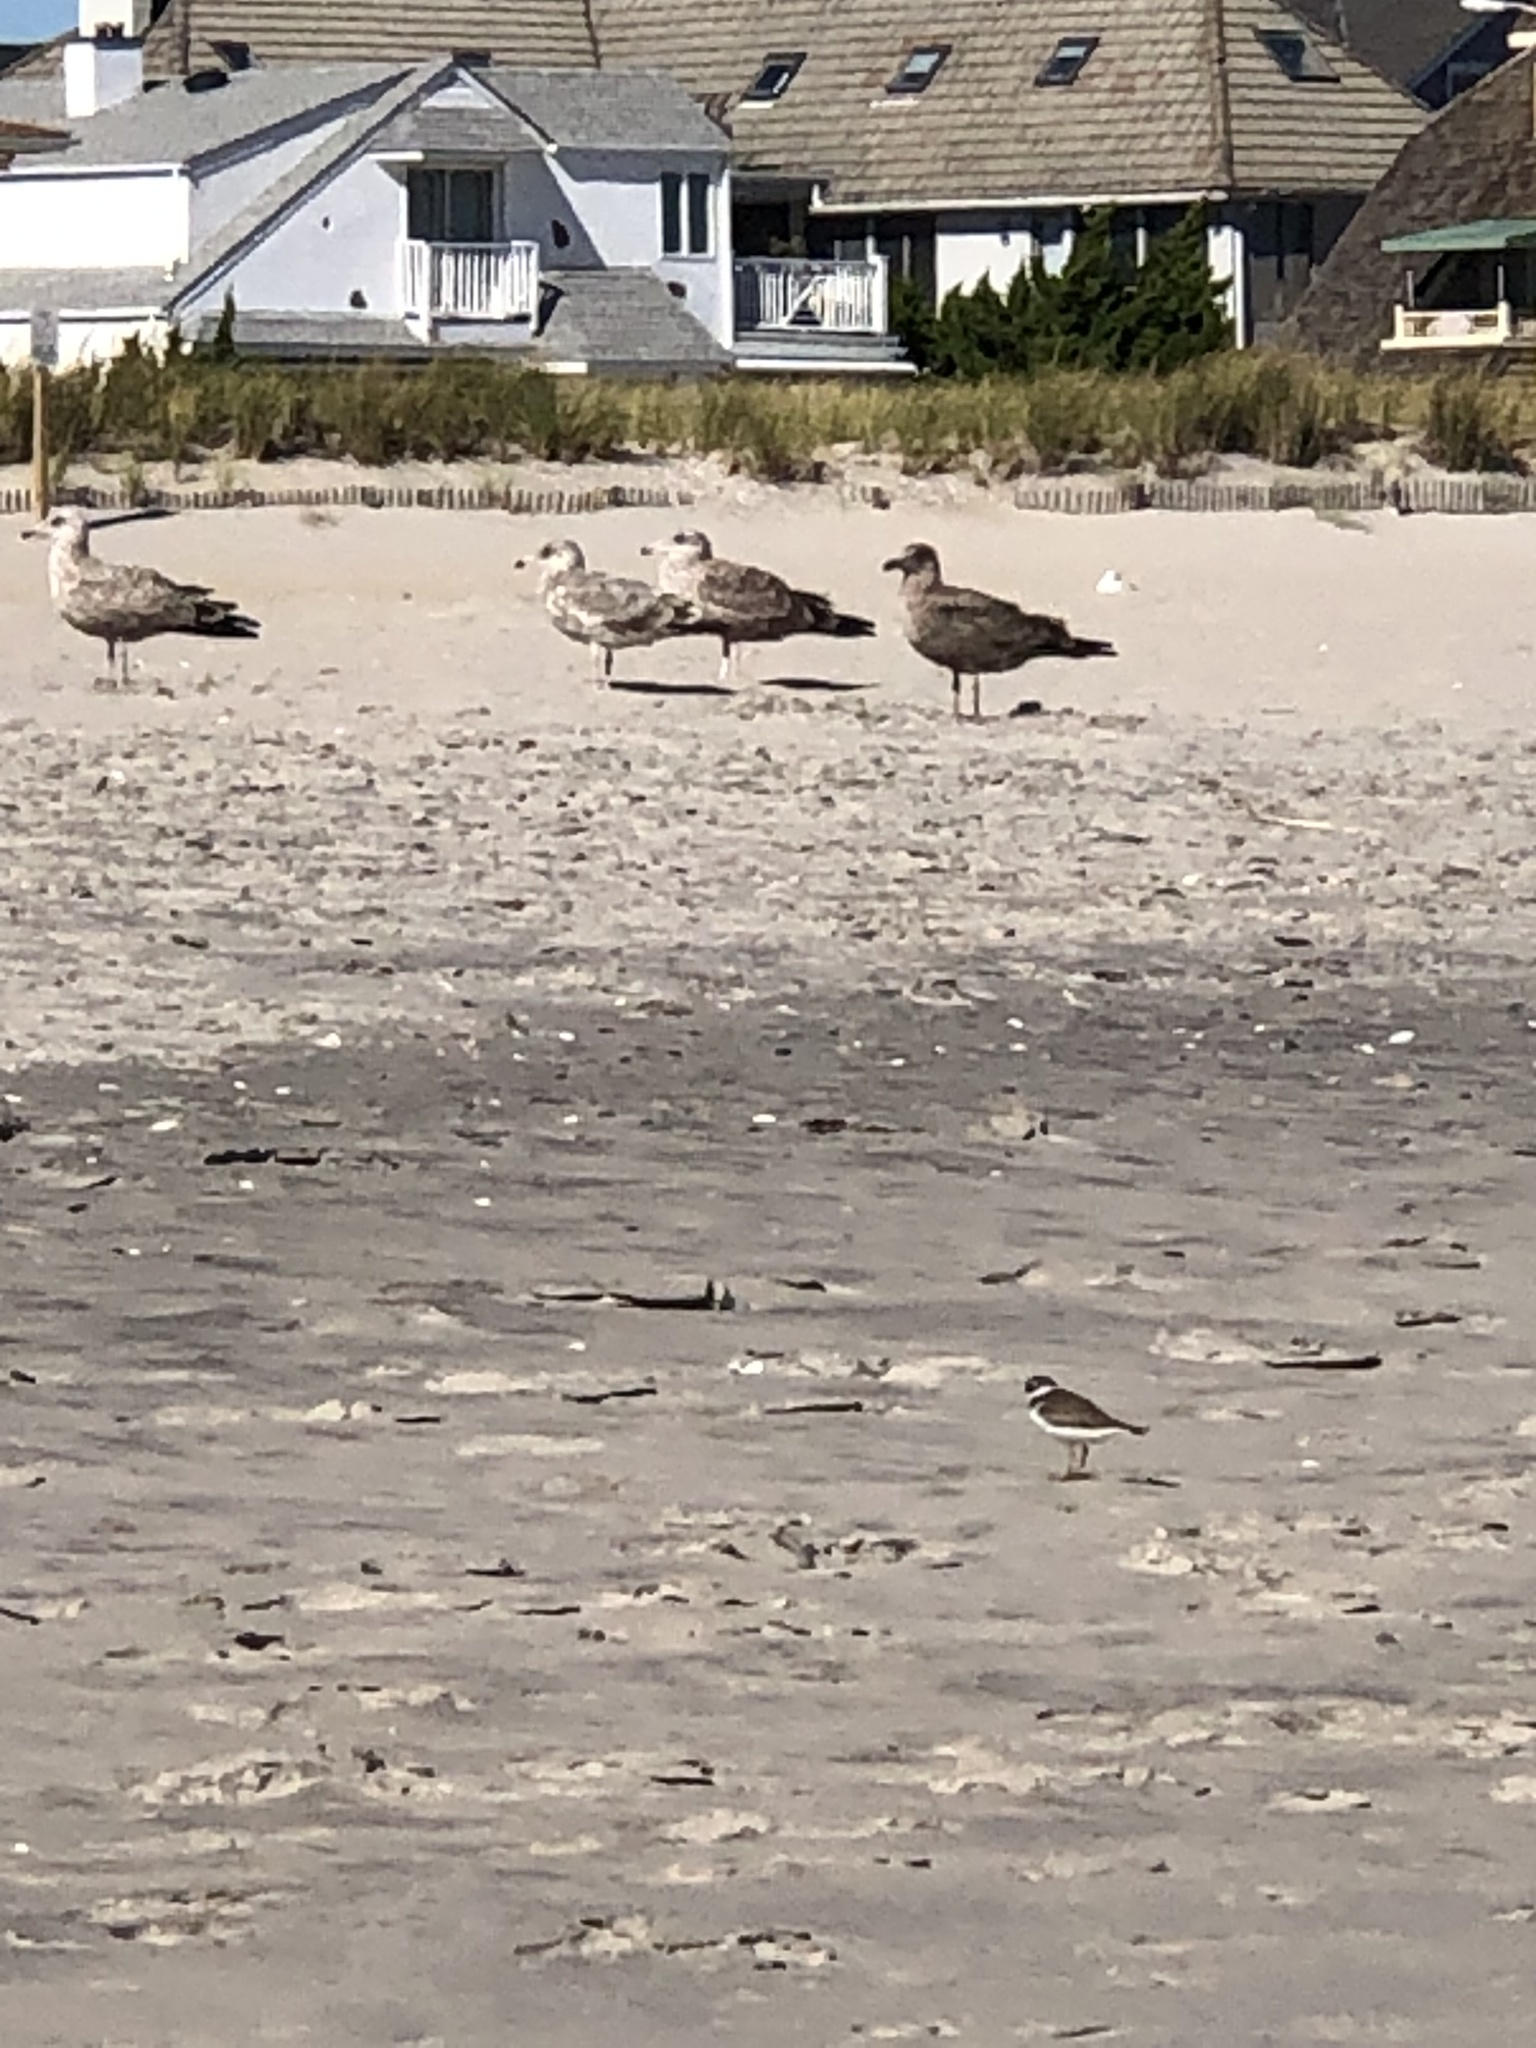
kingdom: Animalia
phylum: Chordata
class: Aves
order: Charadriiformes
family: Charadriidae
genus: Charadrius
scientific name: Charadrius semipalmatus
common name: Semipalmated plover
